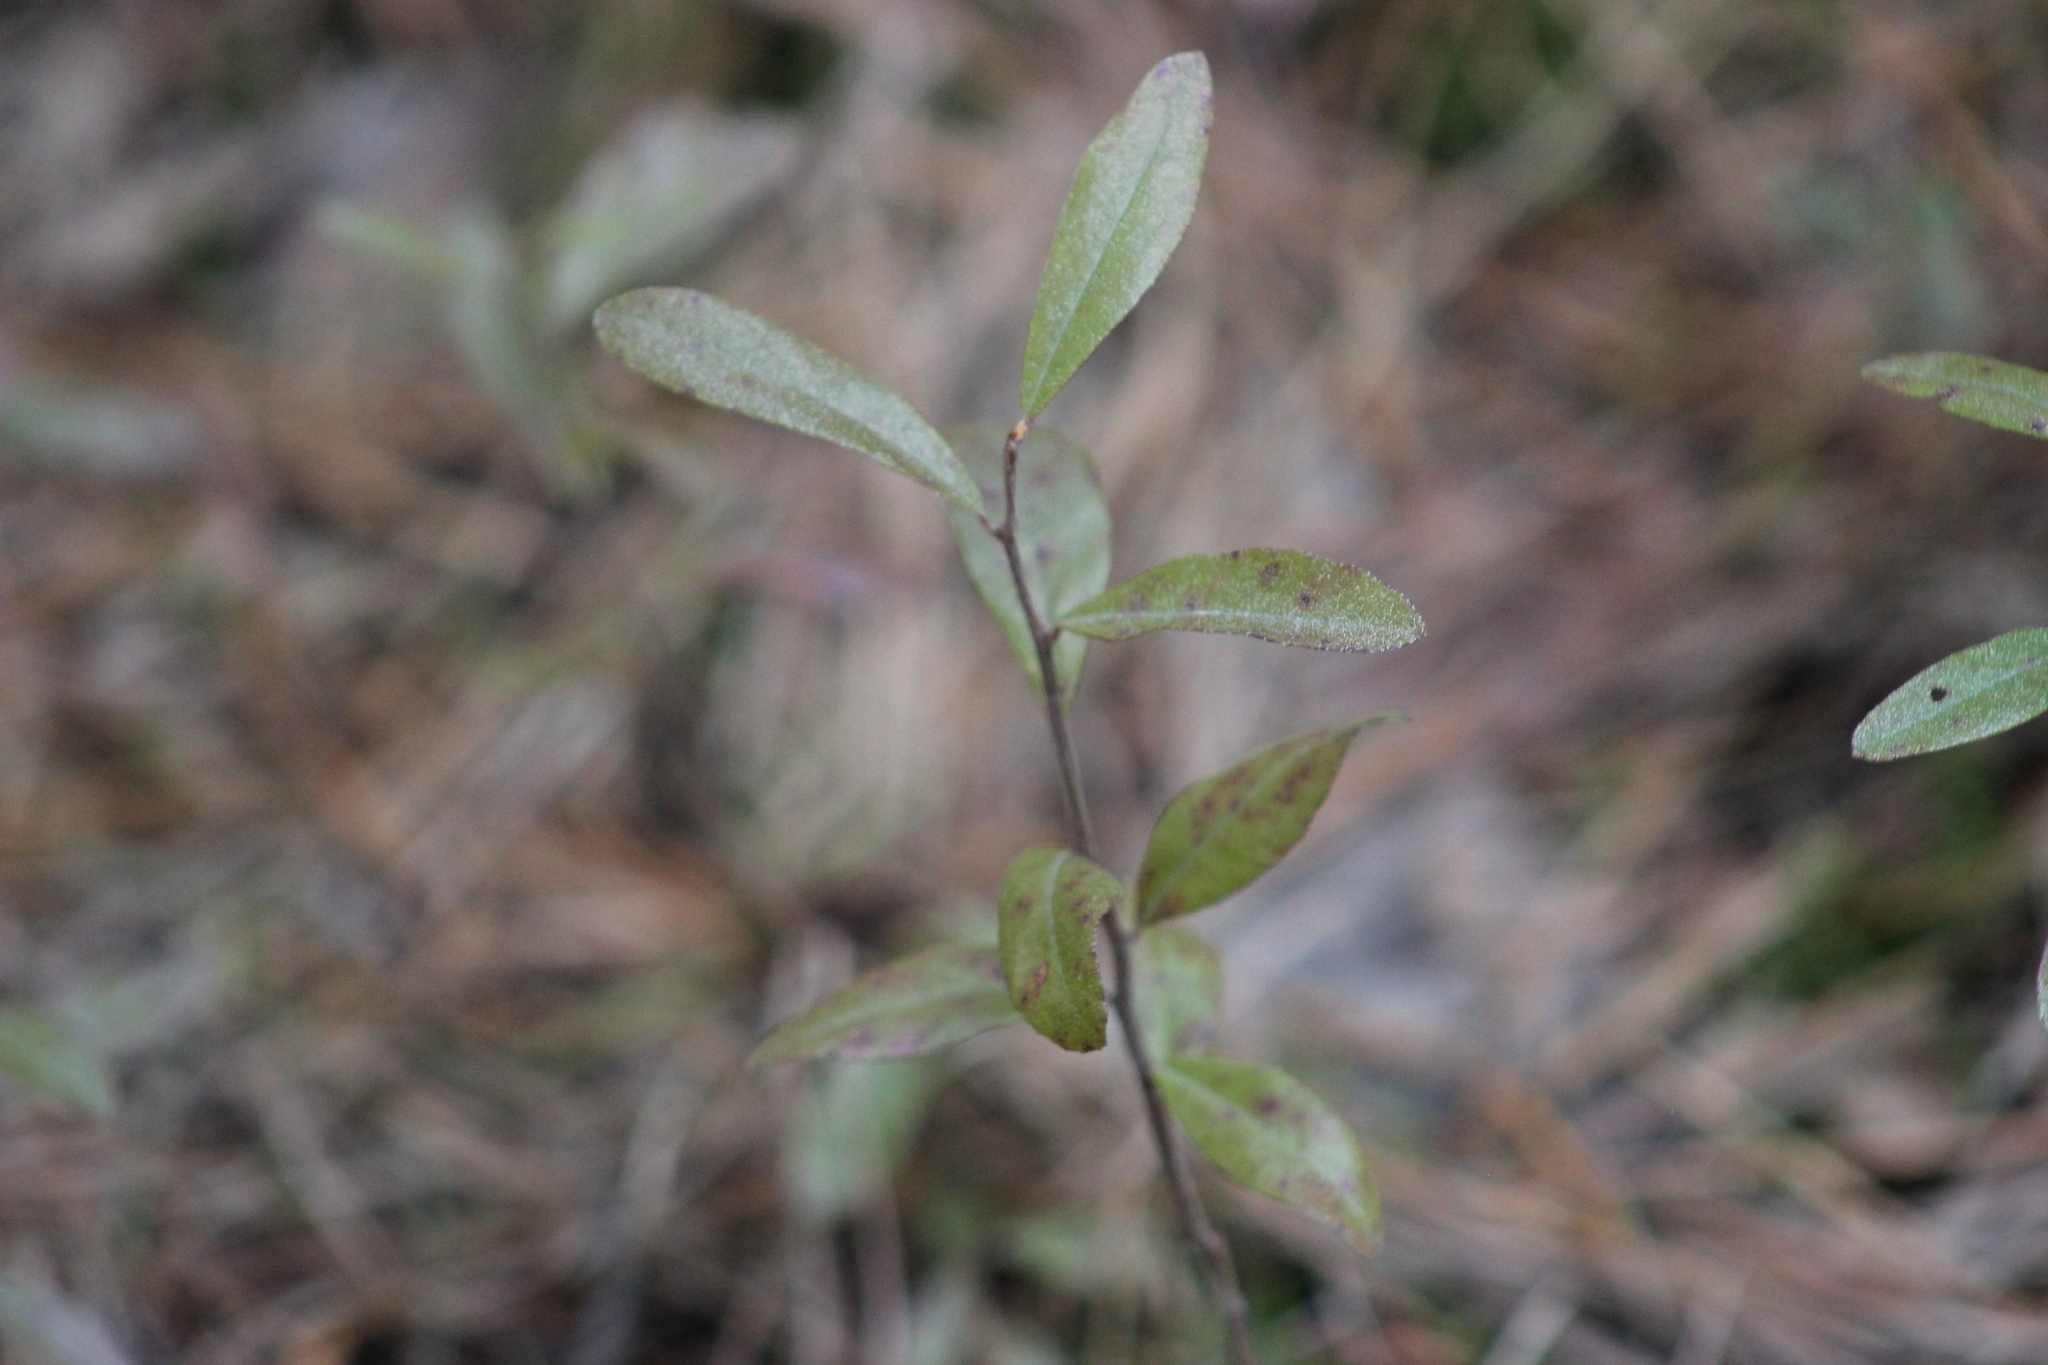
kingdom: Plantae
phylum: Tracheophyta
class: Magnoliopsida
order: Ericales
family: Ericaceae
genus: Chamaedaphne
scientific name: Chamaedaphne calyculata
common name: Leatherleaf
